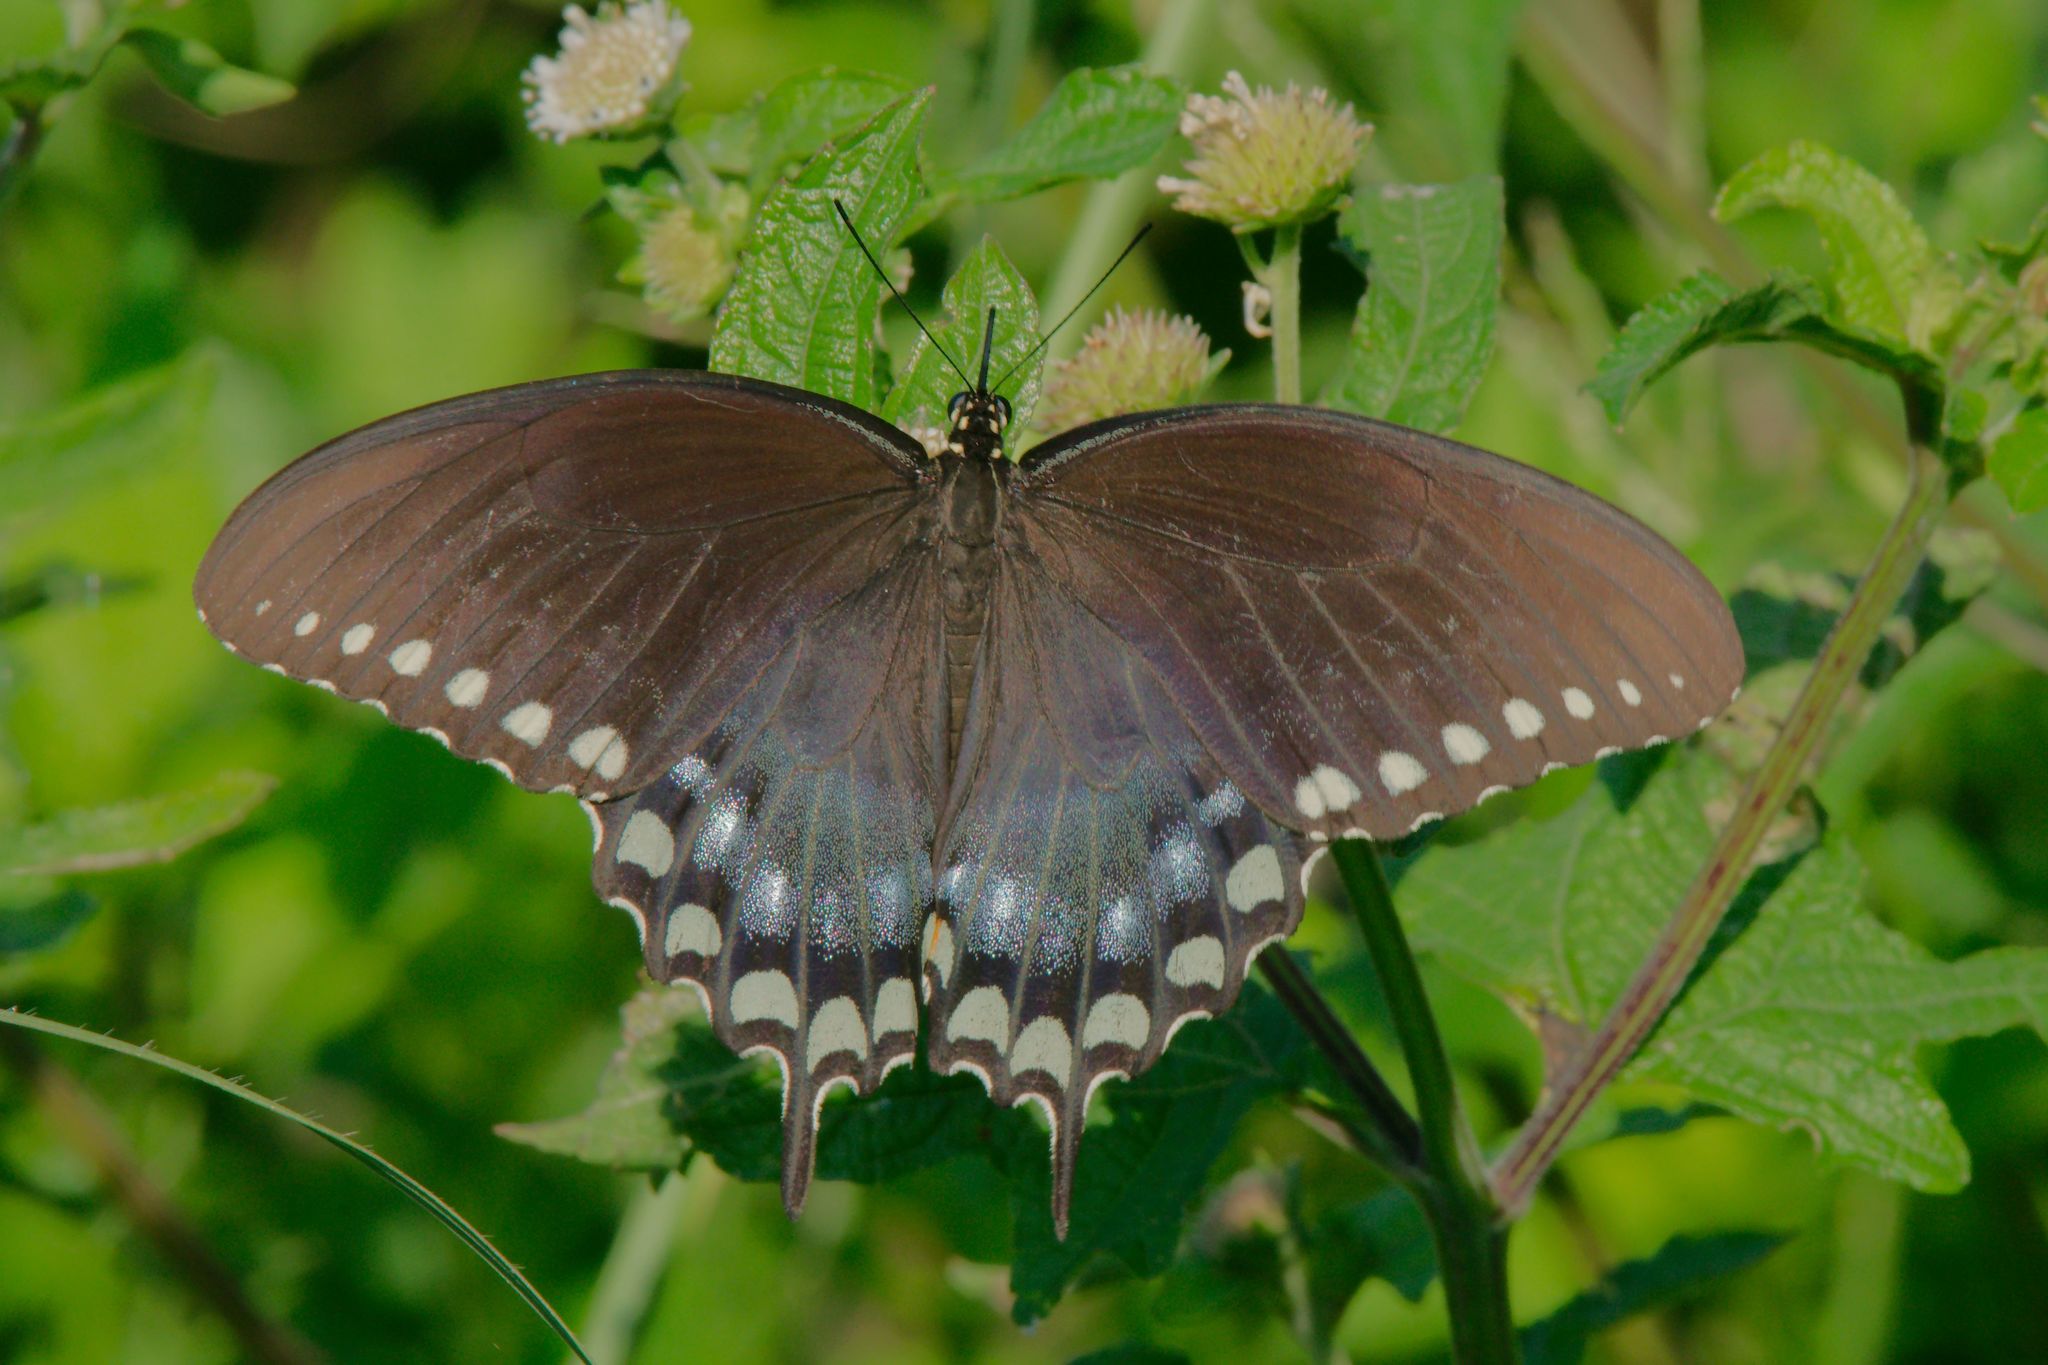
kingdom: Animalia
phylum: Arthropoda
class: Insecta
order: Lepidoptera
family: Papilionidae
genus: Papilio
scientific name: Papilio troilus
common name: Spicebush swallowtail
